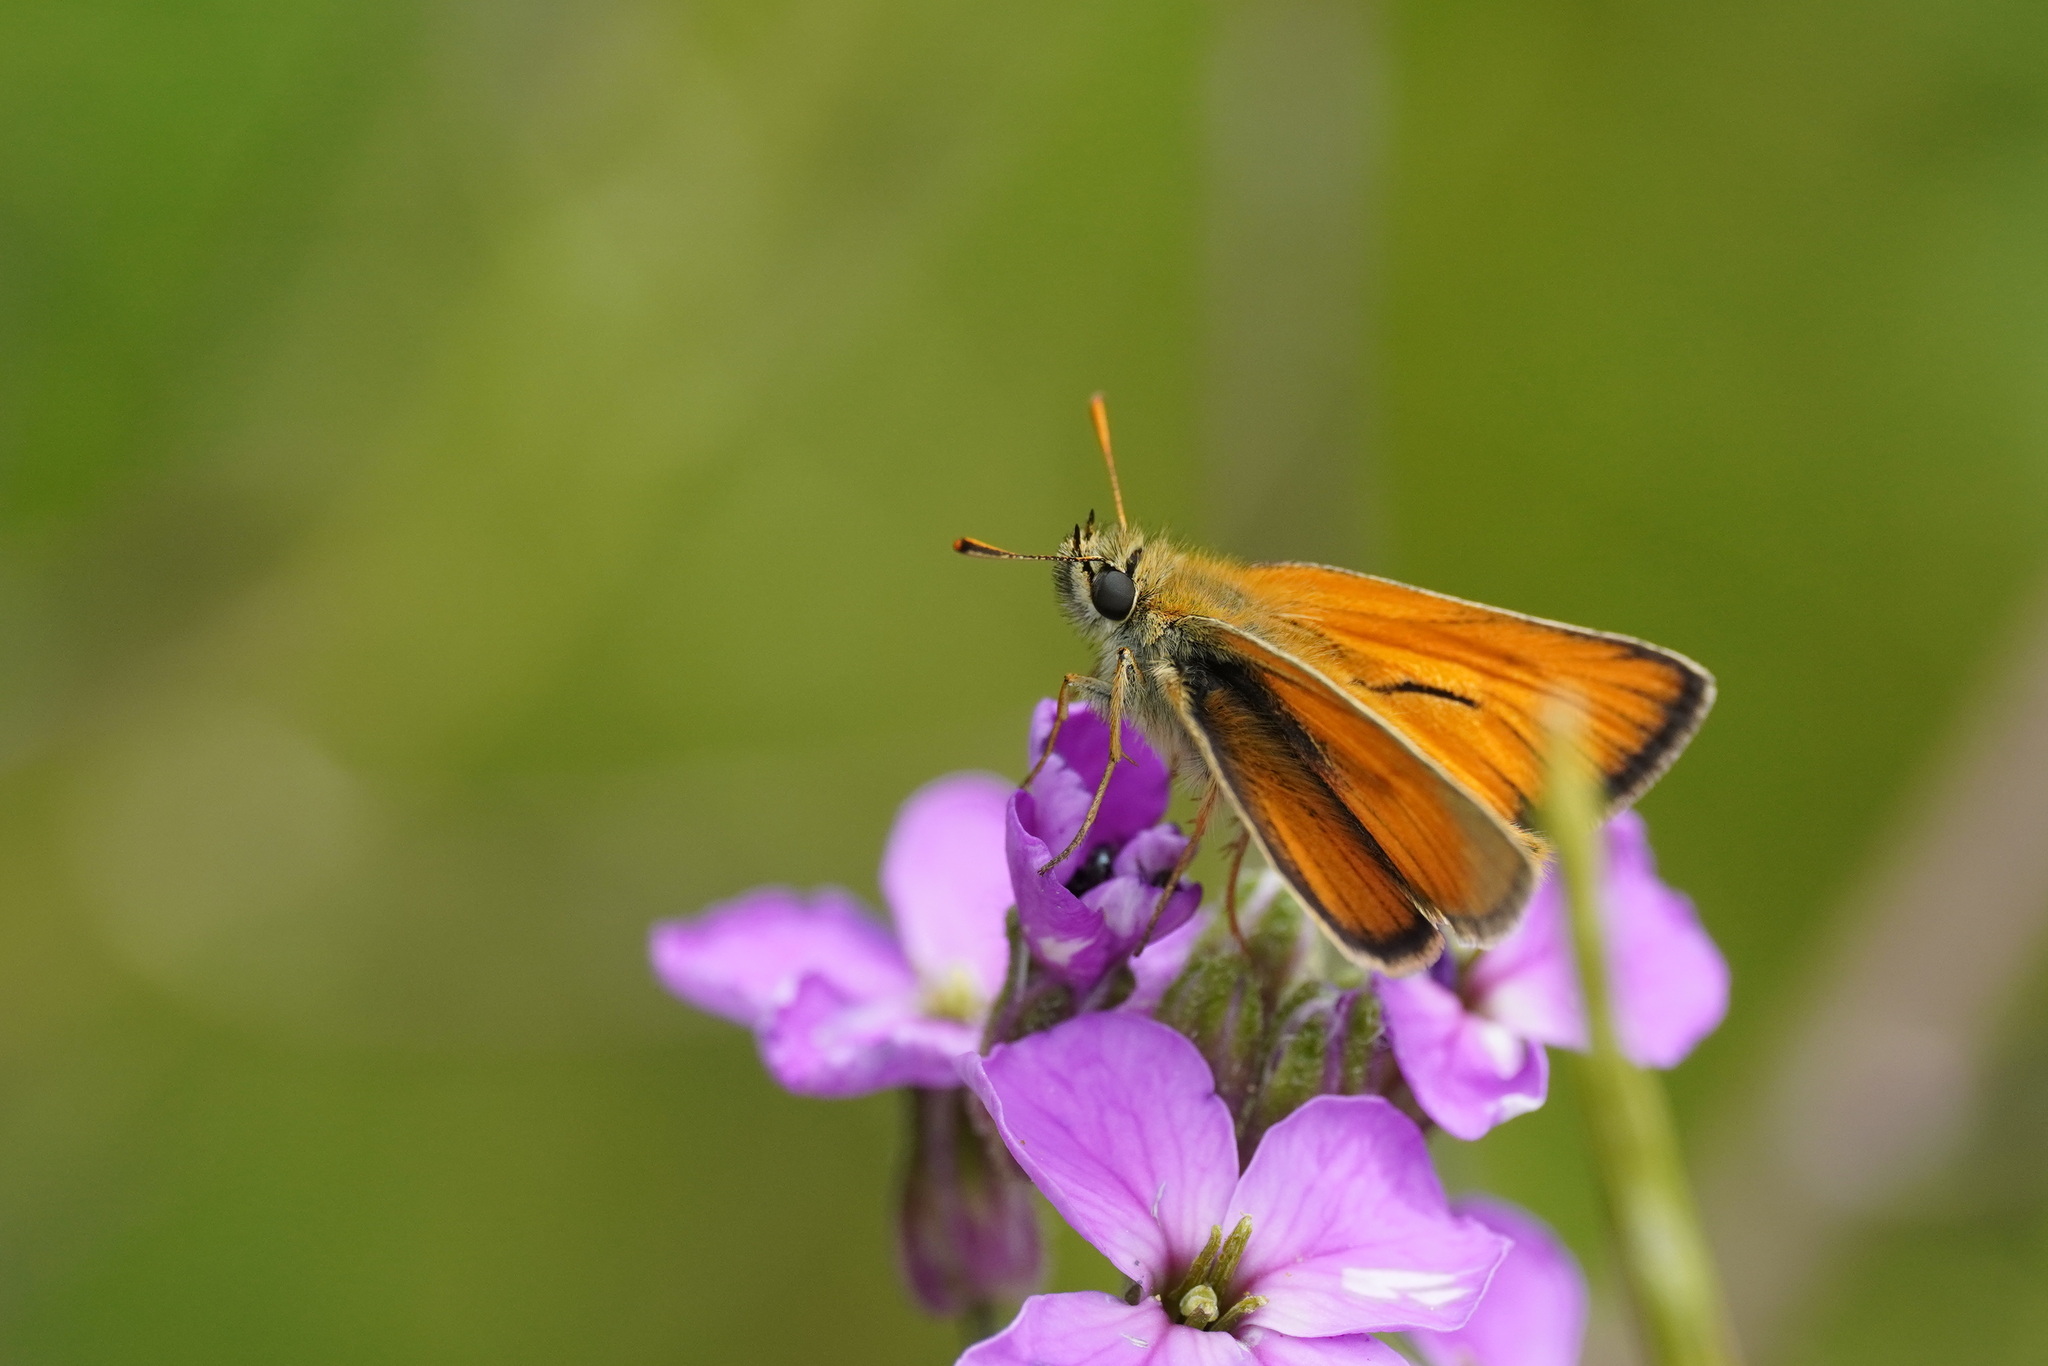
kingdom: Animalia
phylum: Arthropoda
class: Insecta
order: Lepidoptera
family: Hesperiidae
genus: Thymelicus
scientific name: Thymelicus sylvestris
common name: Small skipper
